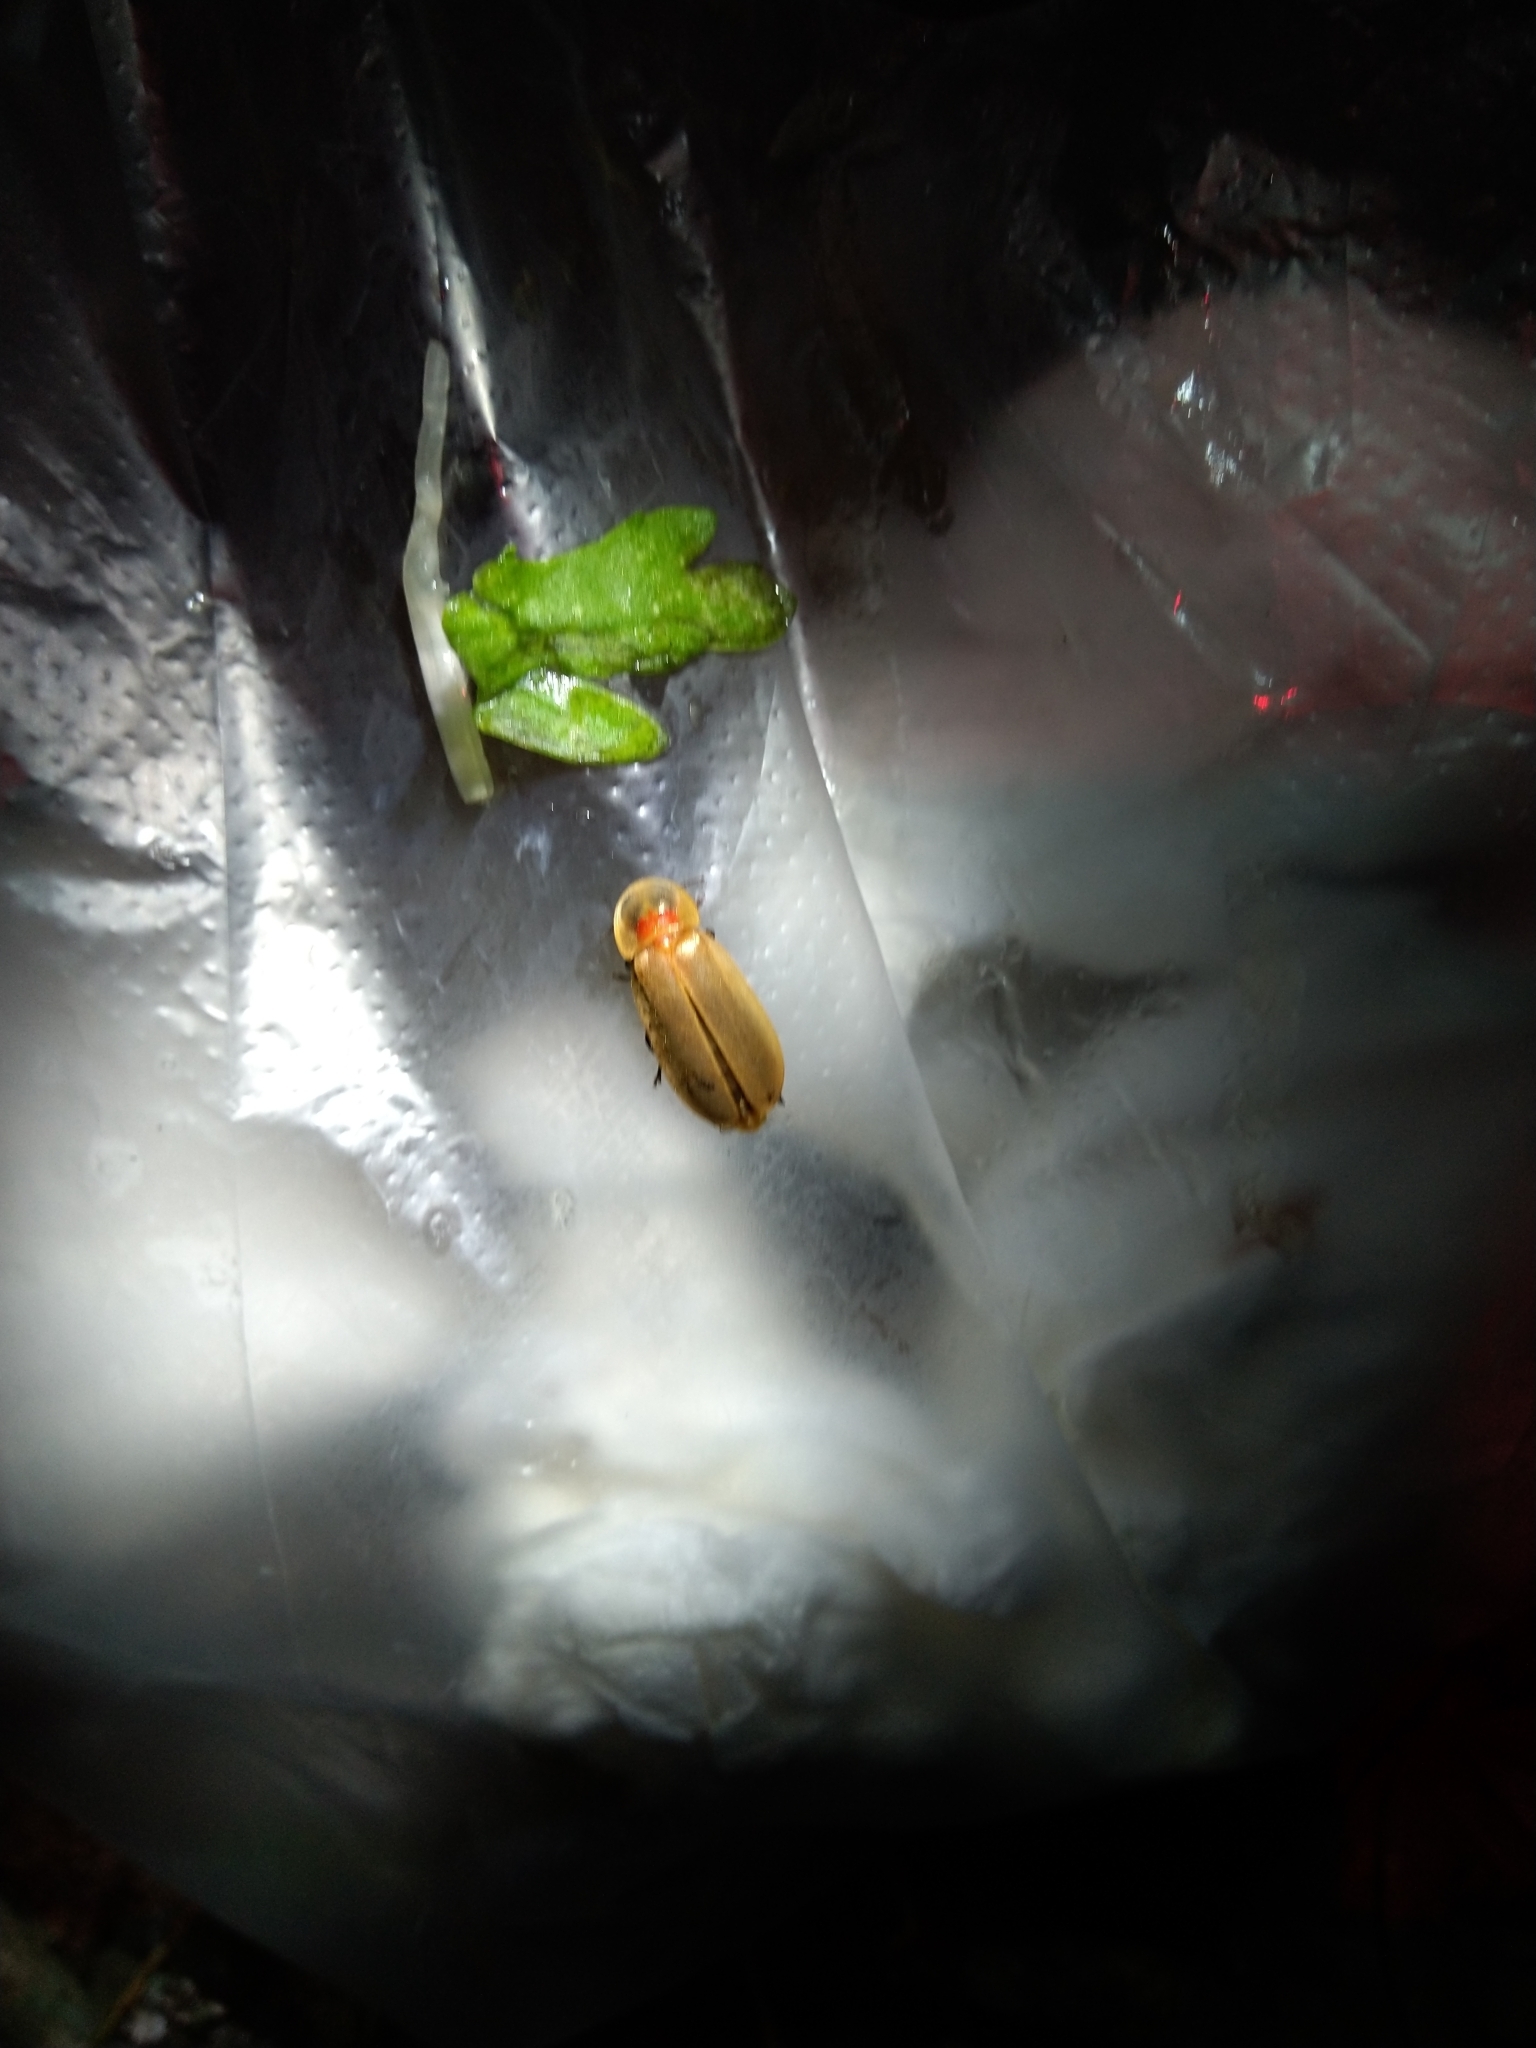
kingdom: Animalia
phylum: Arthropoda
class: Insecta
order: Coleoptera
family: Lampyridae
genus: Diaphanes
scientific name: Diaphanes citrinus
